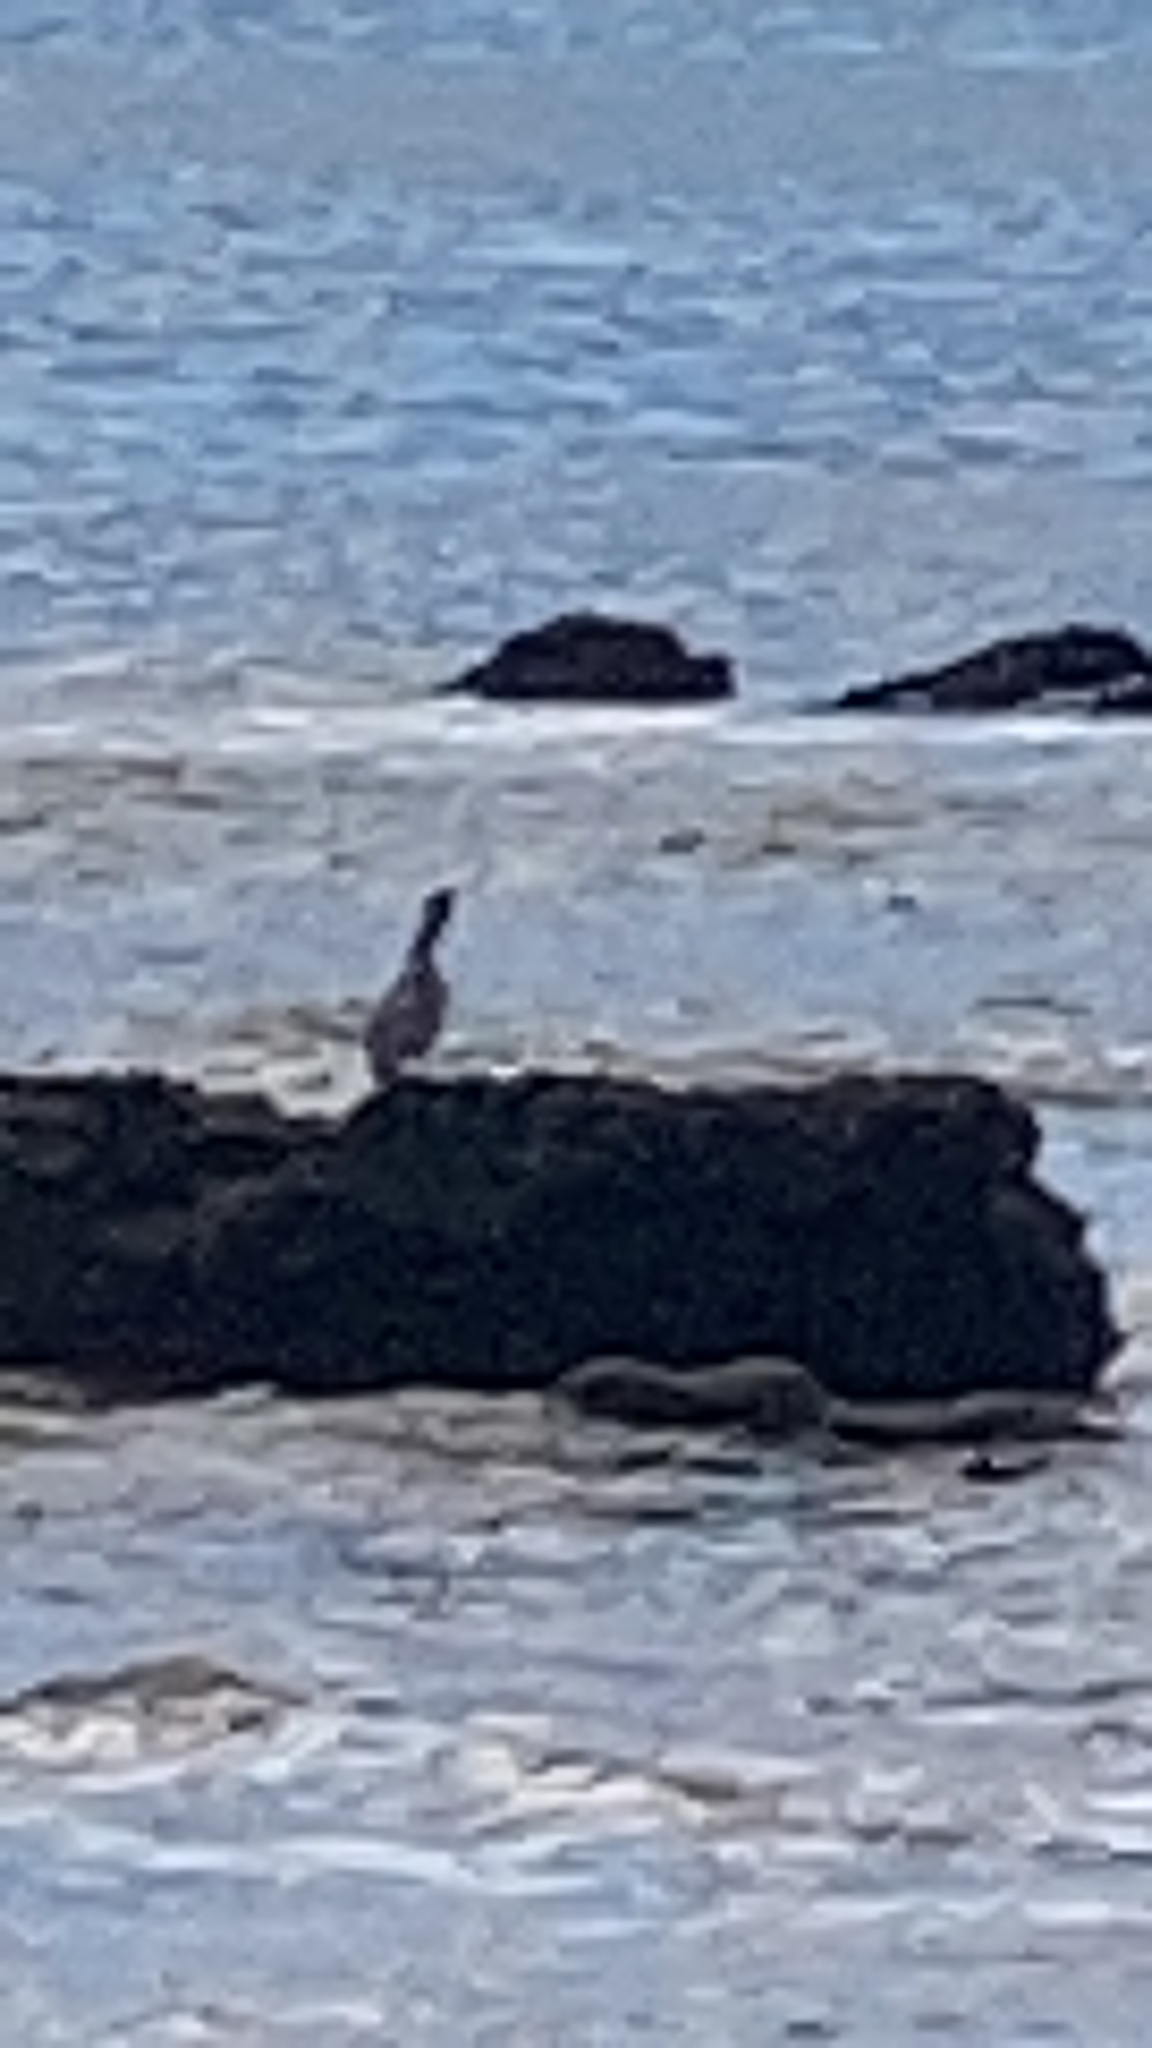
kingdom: Animalia
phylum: Chordata
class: Aves
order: Pelecaniformes
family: Pelecanidae
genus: Pelecanus
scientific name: Pelecanus occidentalis
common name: Brown pelican
